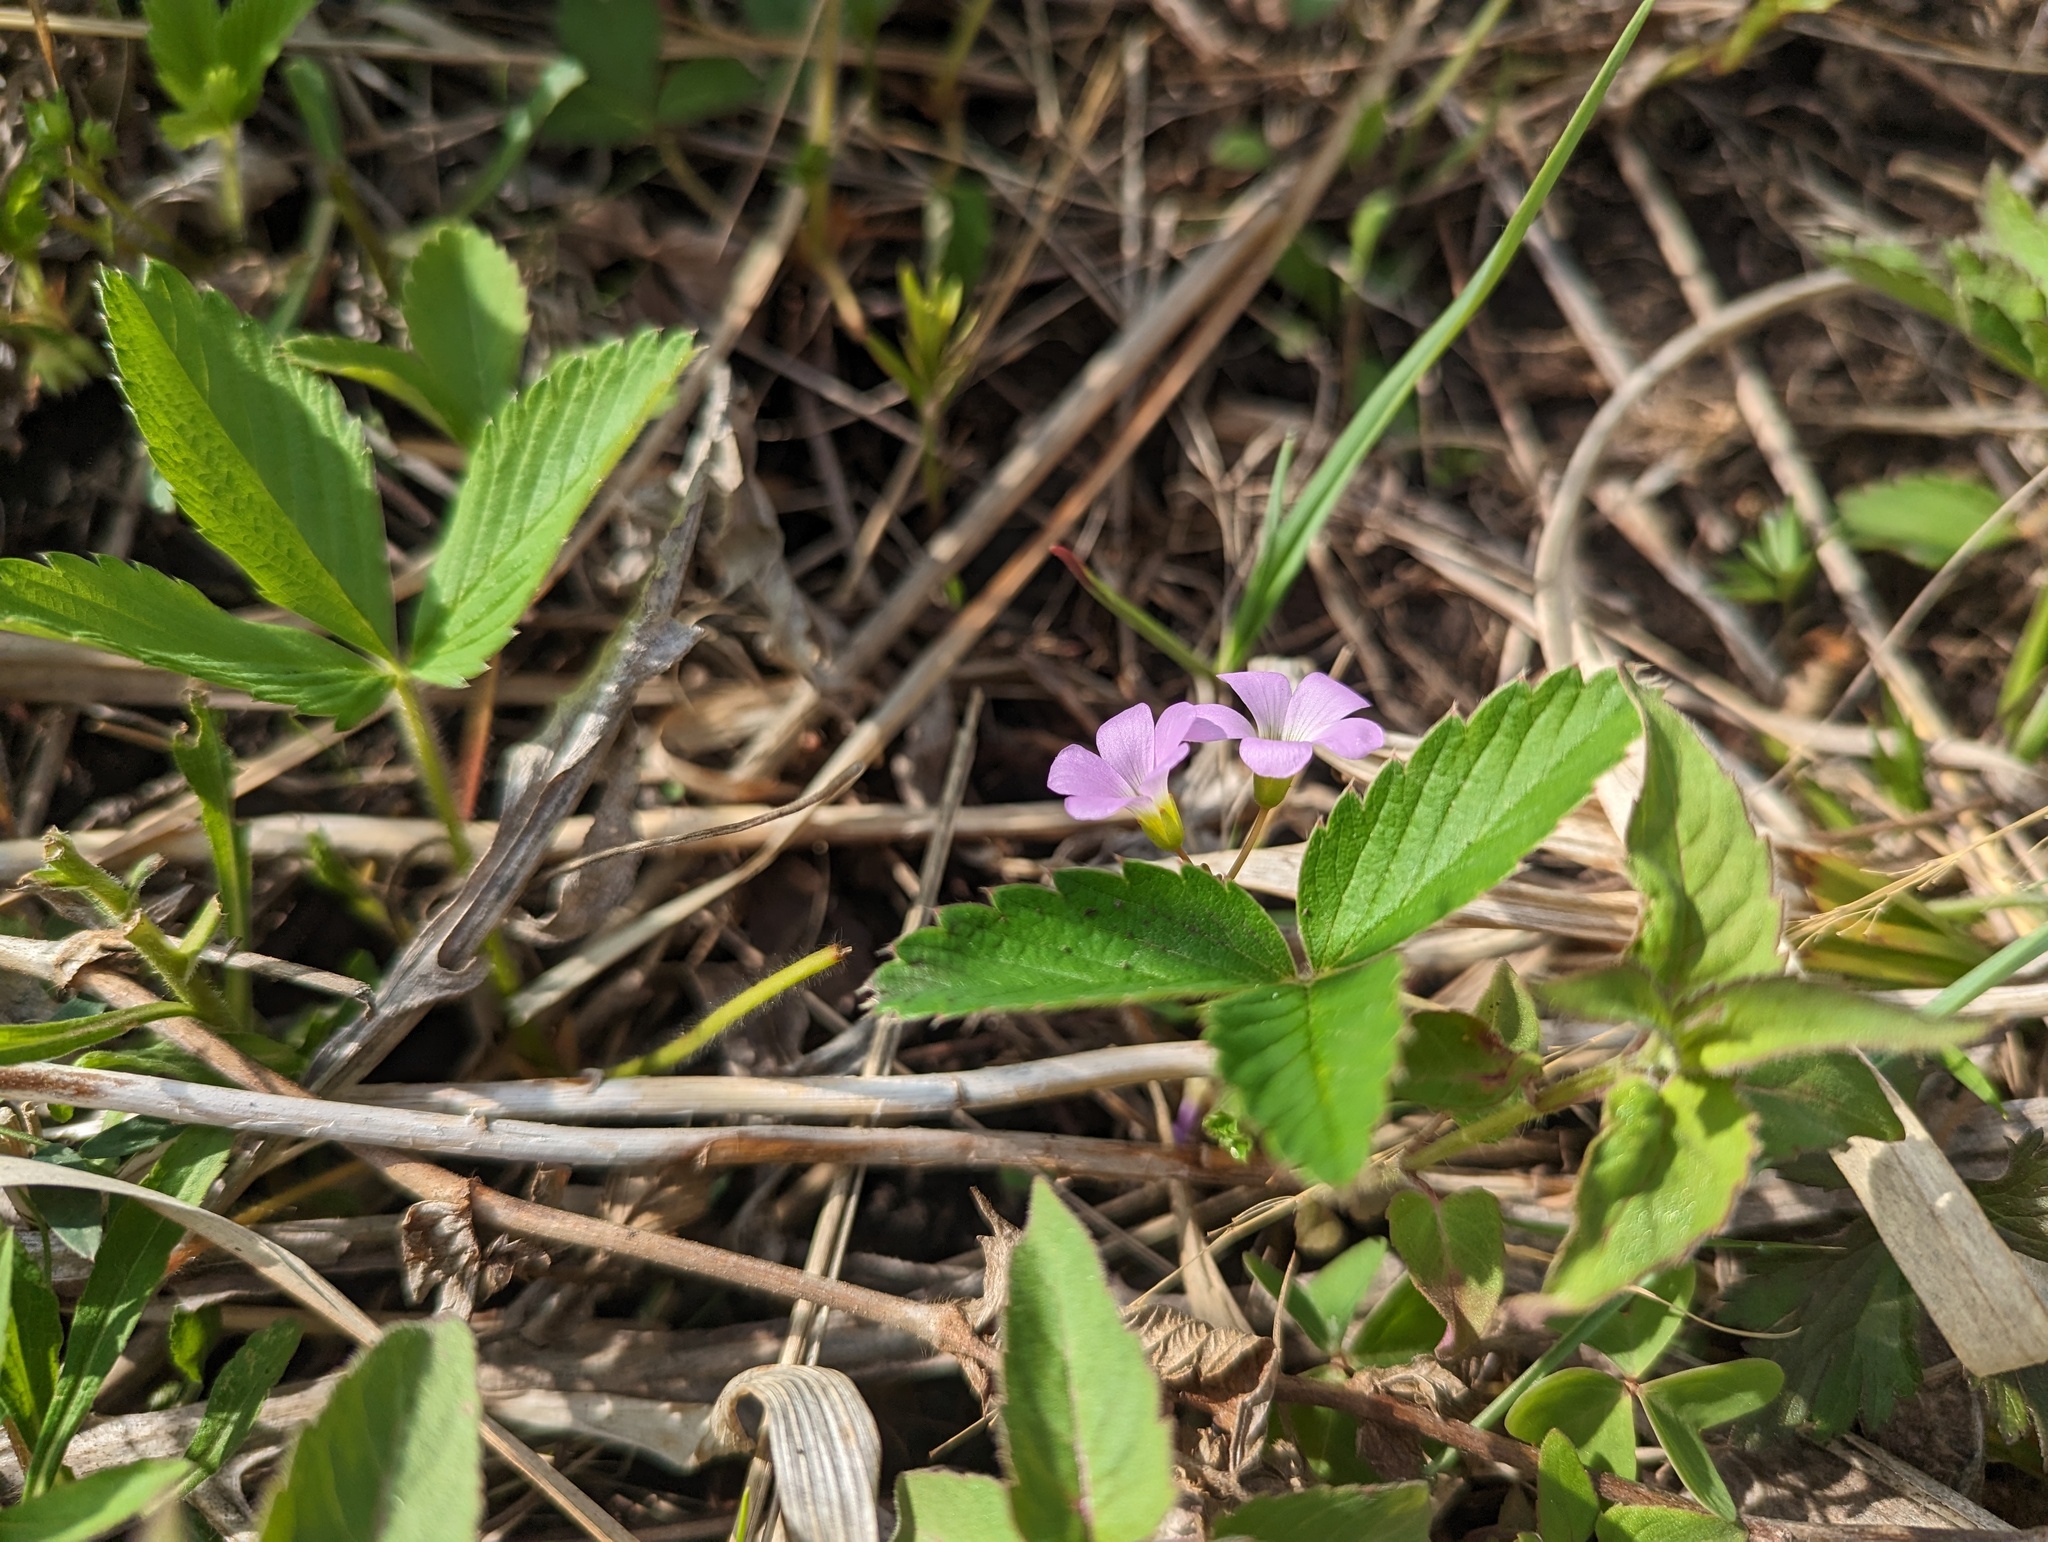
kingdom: Plantae
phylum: Tracheophyta
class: Magnoliopsida
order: Oxalidales
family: Oxalidaceae
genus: Oxalis
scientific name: Oxalis violacea
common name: Violet wood-sorrel
